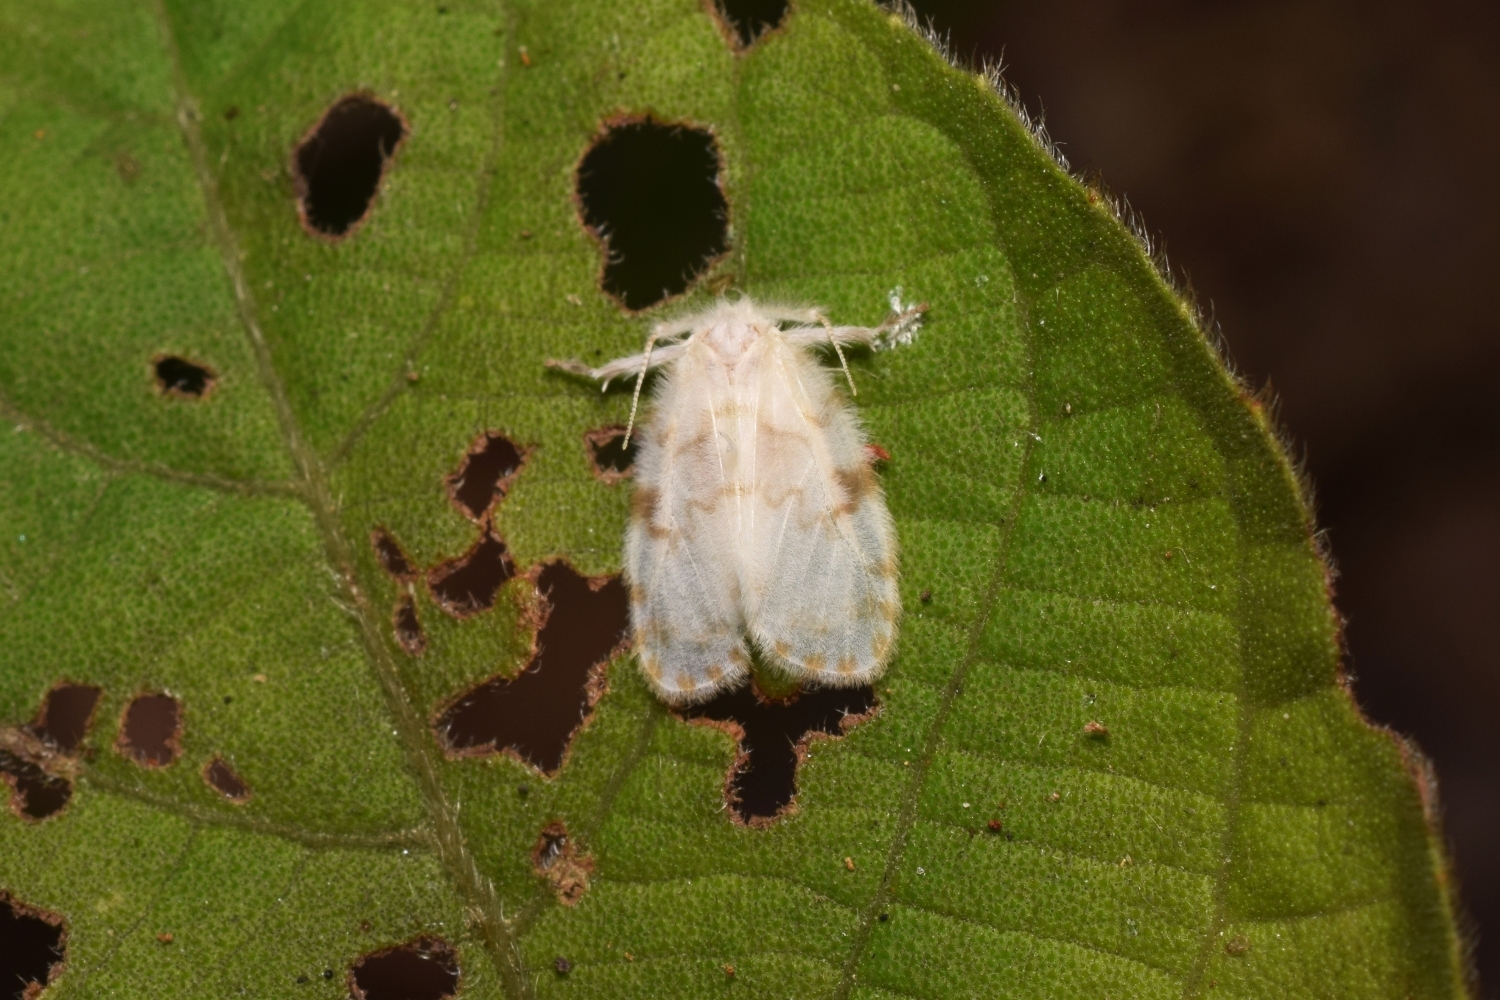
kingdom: Animalia
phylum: Arthropoda
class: Insecta
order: Lepidoptera
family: Erebidae
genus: Chamaita
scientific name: Chamaita nympha
